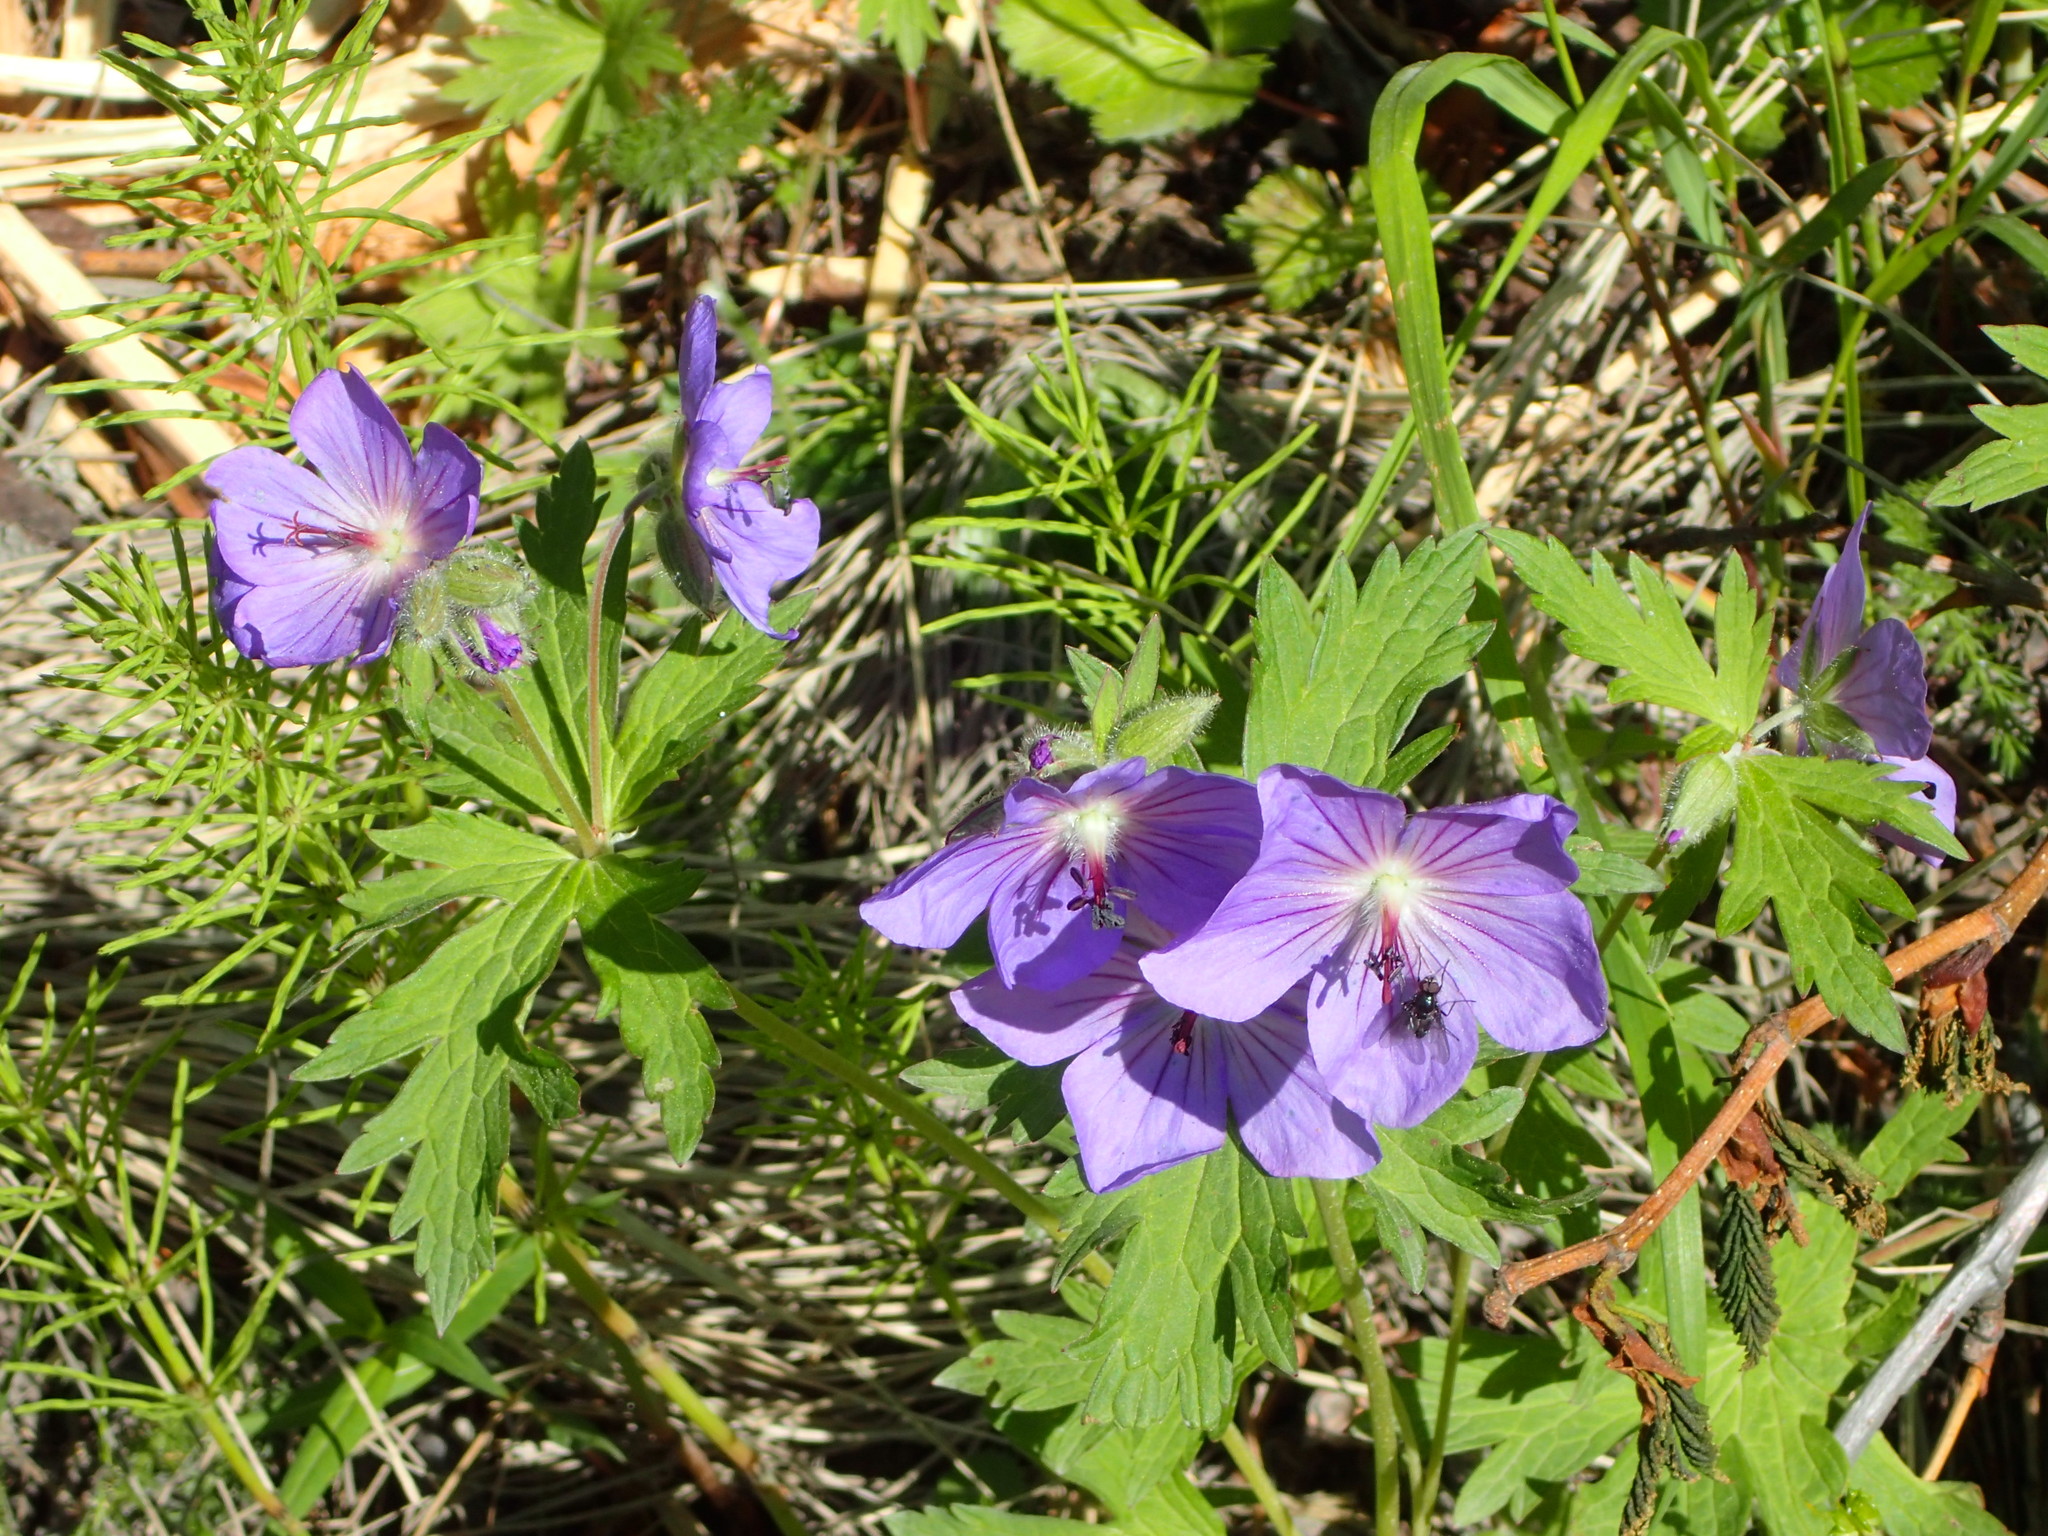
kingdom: Plantae
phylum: Tracheophyta
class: Magnoliopsida
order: Geraniales
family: Geraniaceae
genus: Geranium
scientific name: Geranium erianthum
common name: Northern crane's-bill
